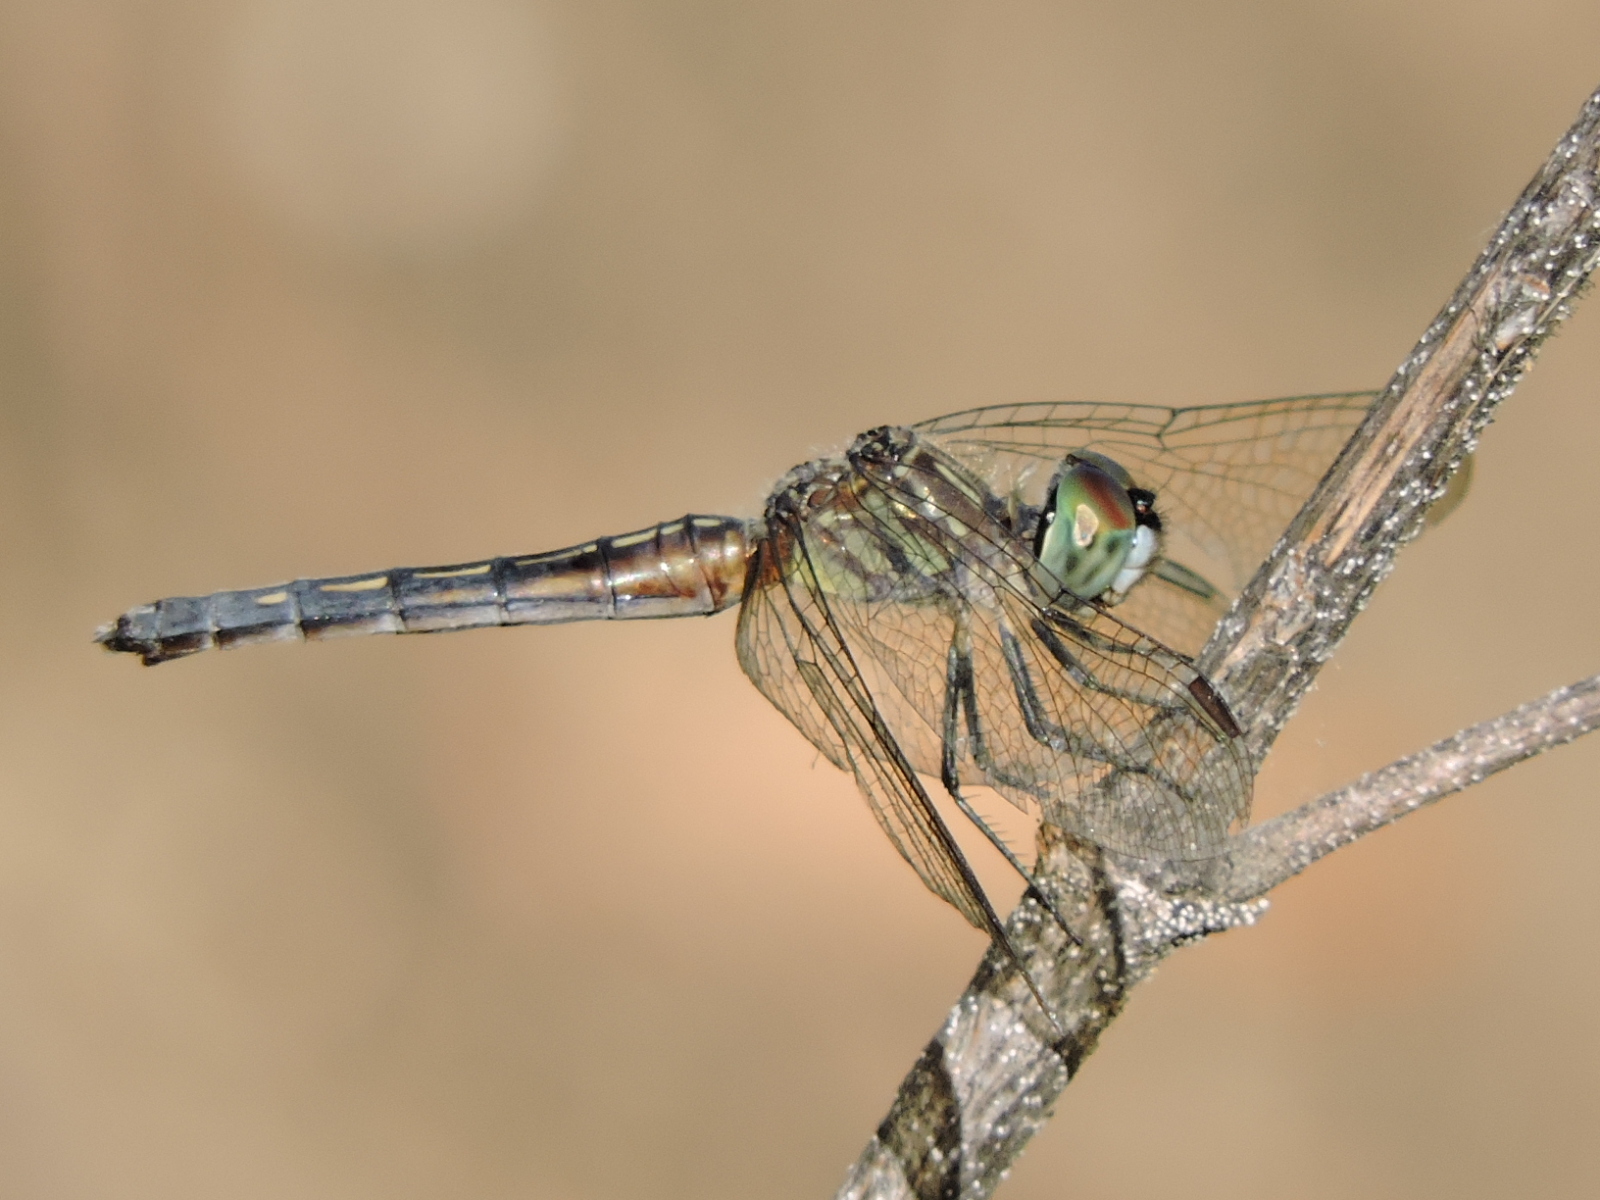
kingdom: Animalia
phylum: Arthropoda
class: Insecta
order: Odonata
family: Libellulidae
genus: Pachydiplax
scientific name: Pachydiplax longipennis
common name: Blue dasher
